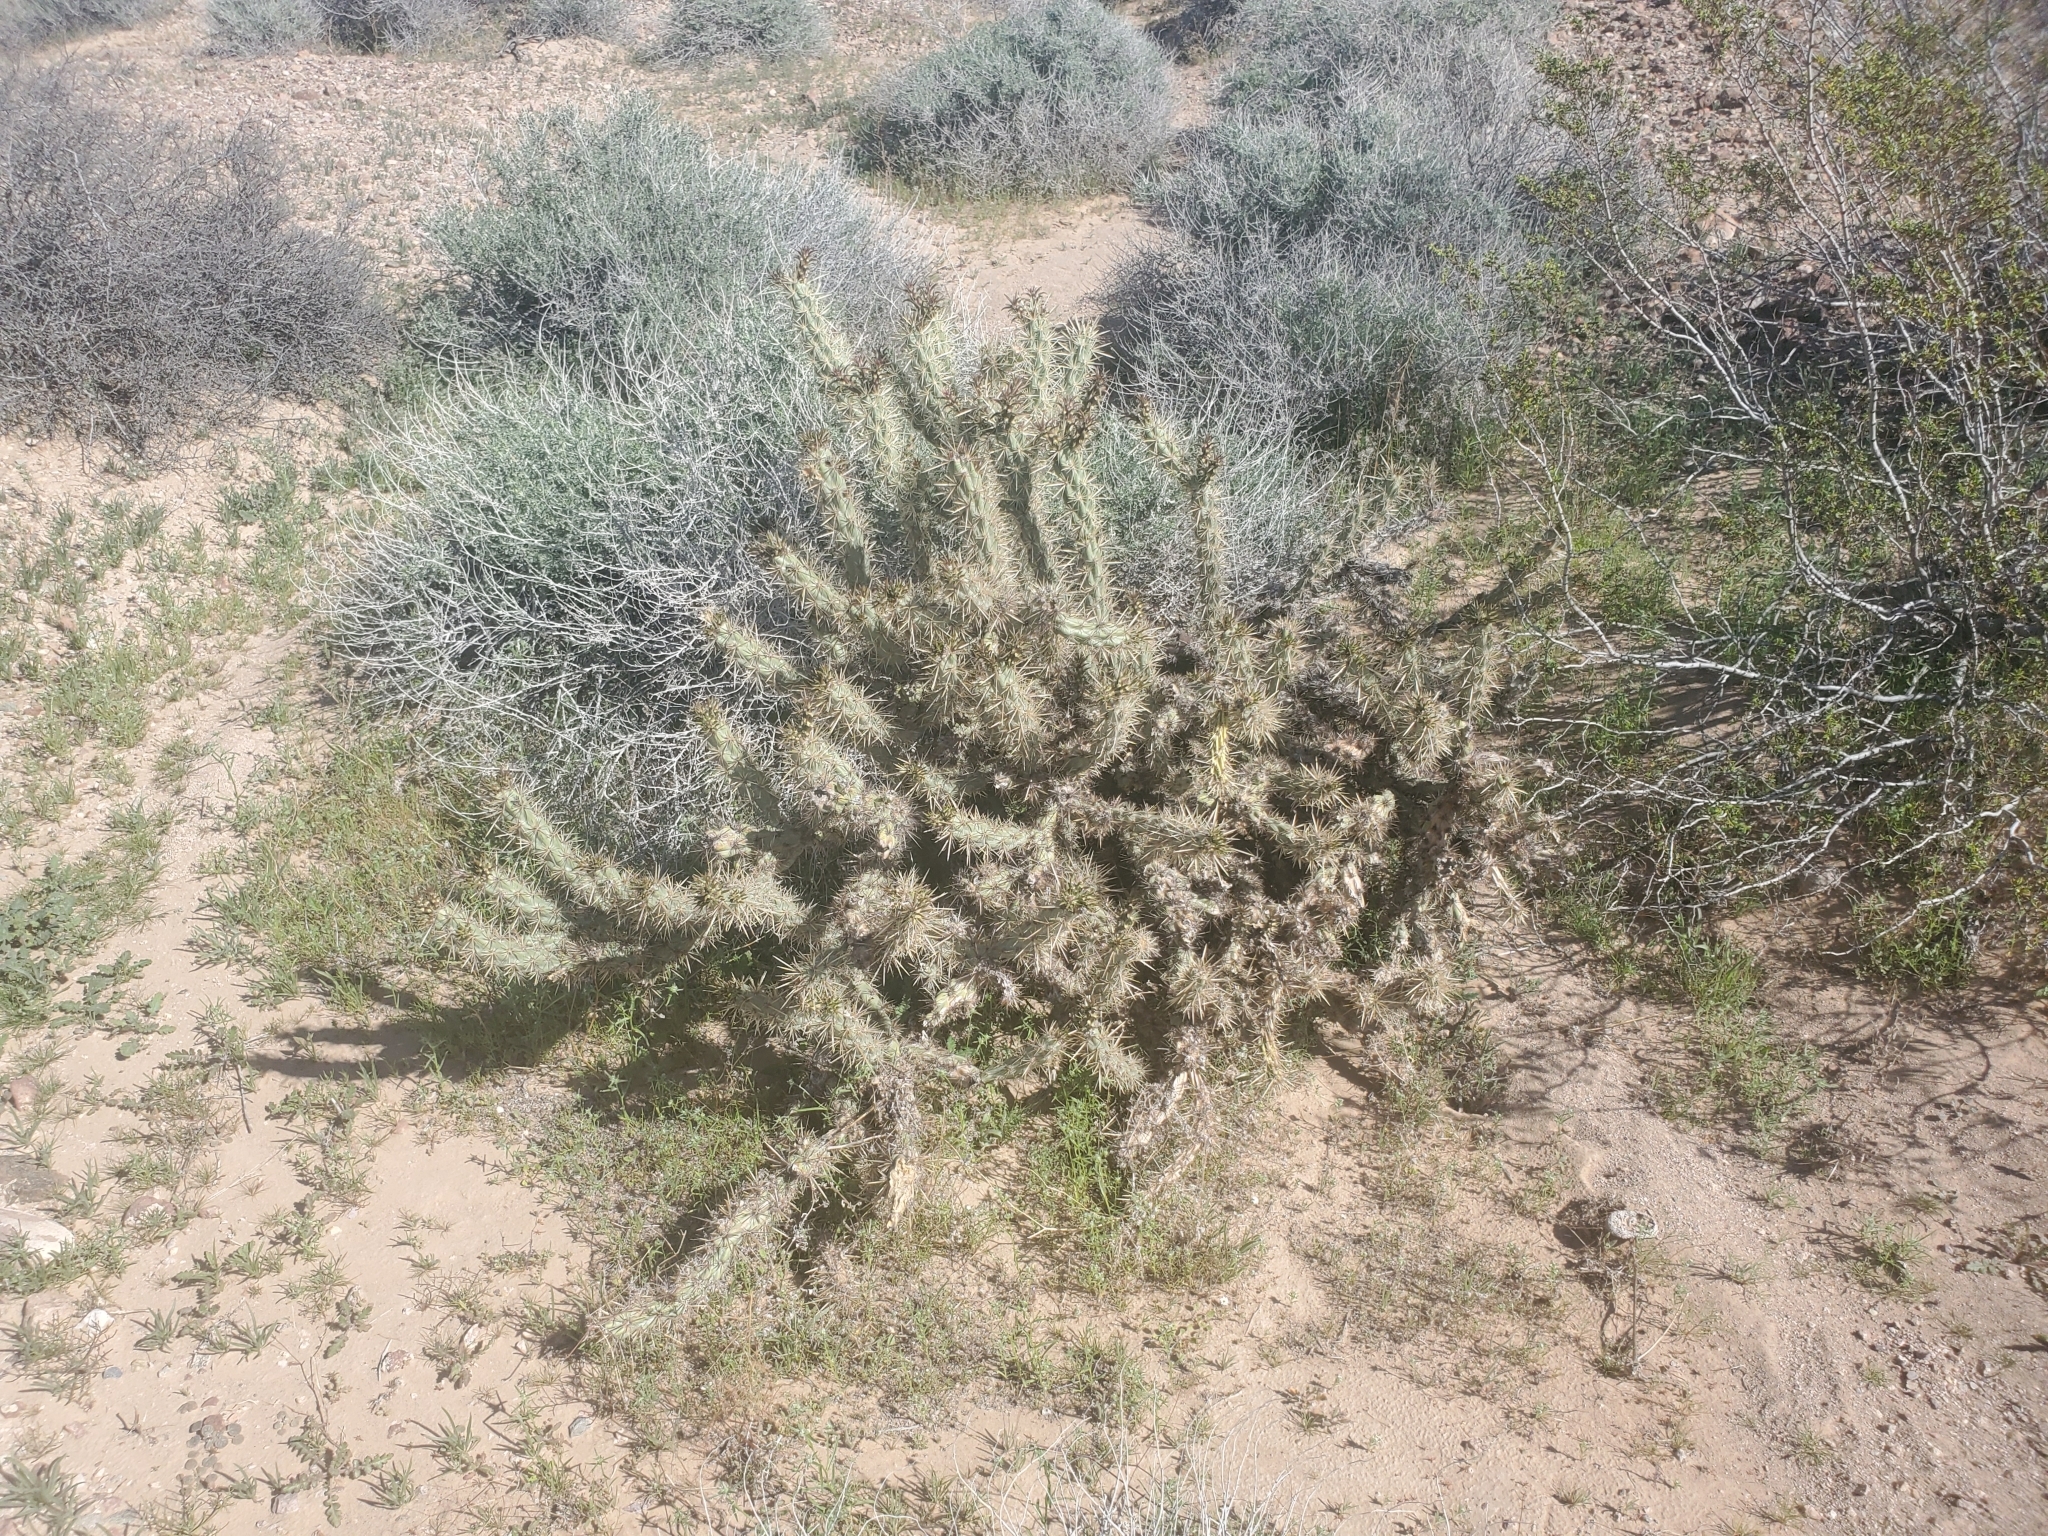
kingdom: Plantae
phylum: Tracheophyta
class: Magnoliopsida
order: Caryophyllales
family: Cactaceae
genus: Cylindropuntia
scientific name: Cylindropuntia acanthocarpa
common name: Buckhorn cholla
